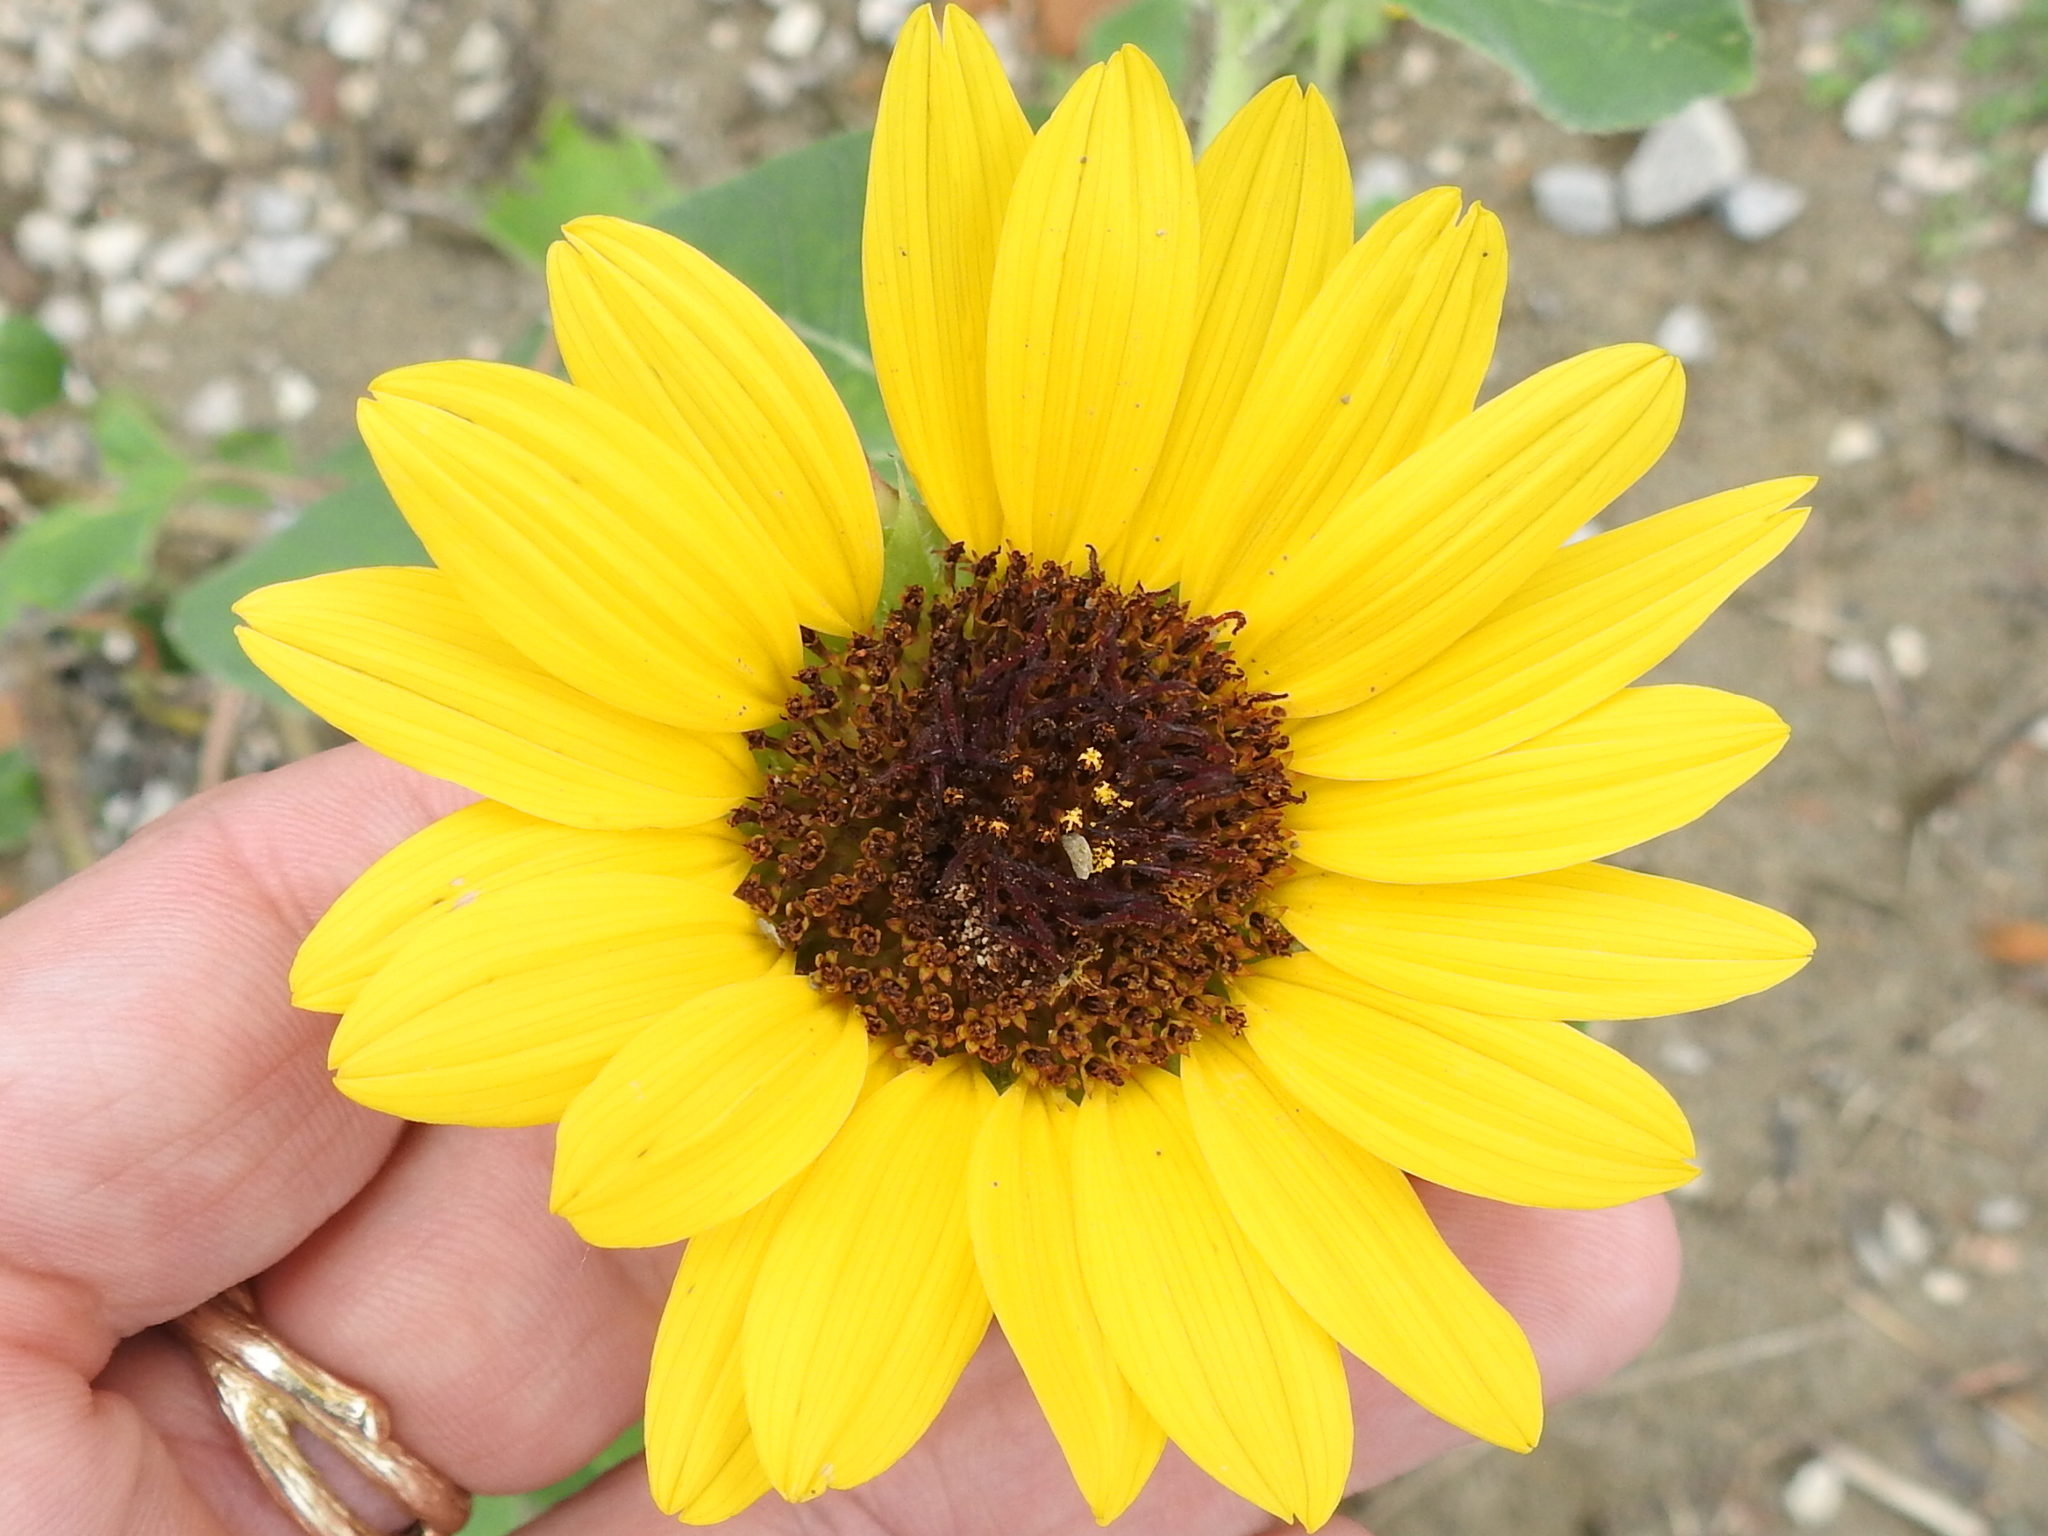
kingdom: Plantae
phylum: Tracheophyta
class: Magnoliopsida
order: Asterales
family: Asteraceae
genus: Helianthus
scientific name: Helianthus annuus
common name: Sunflower
